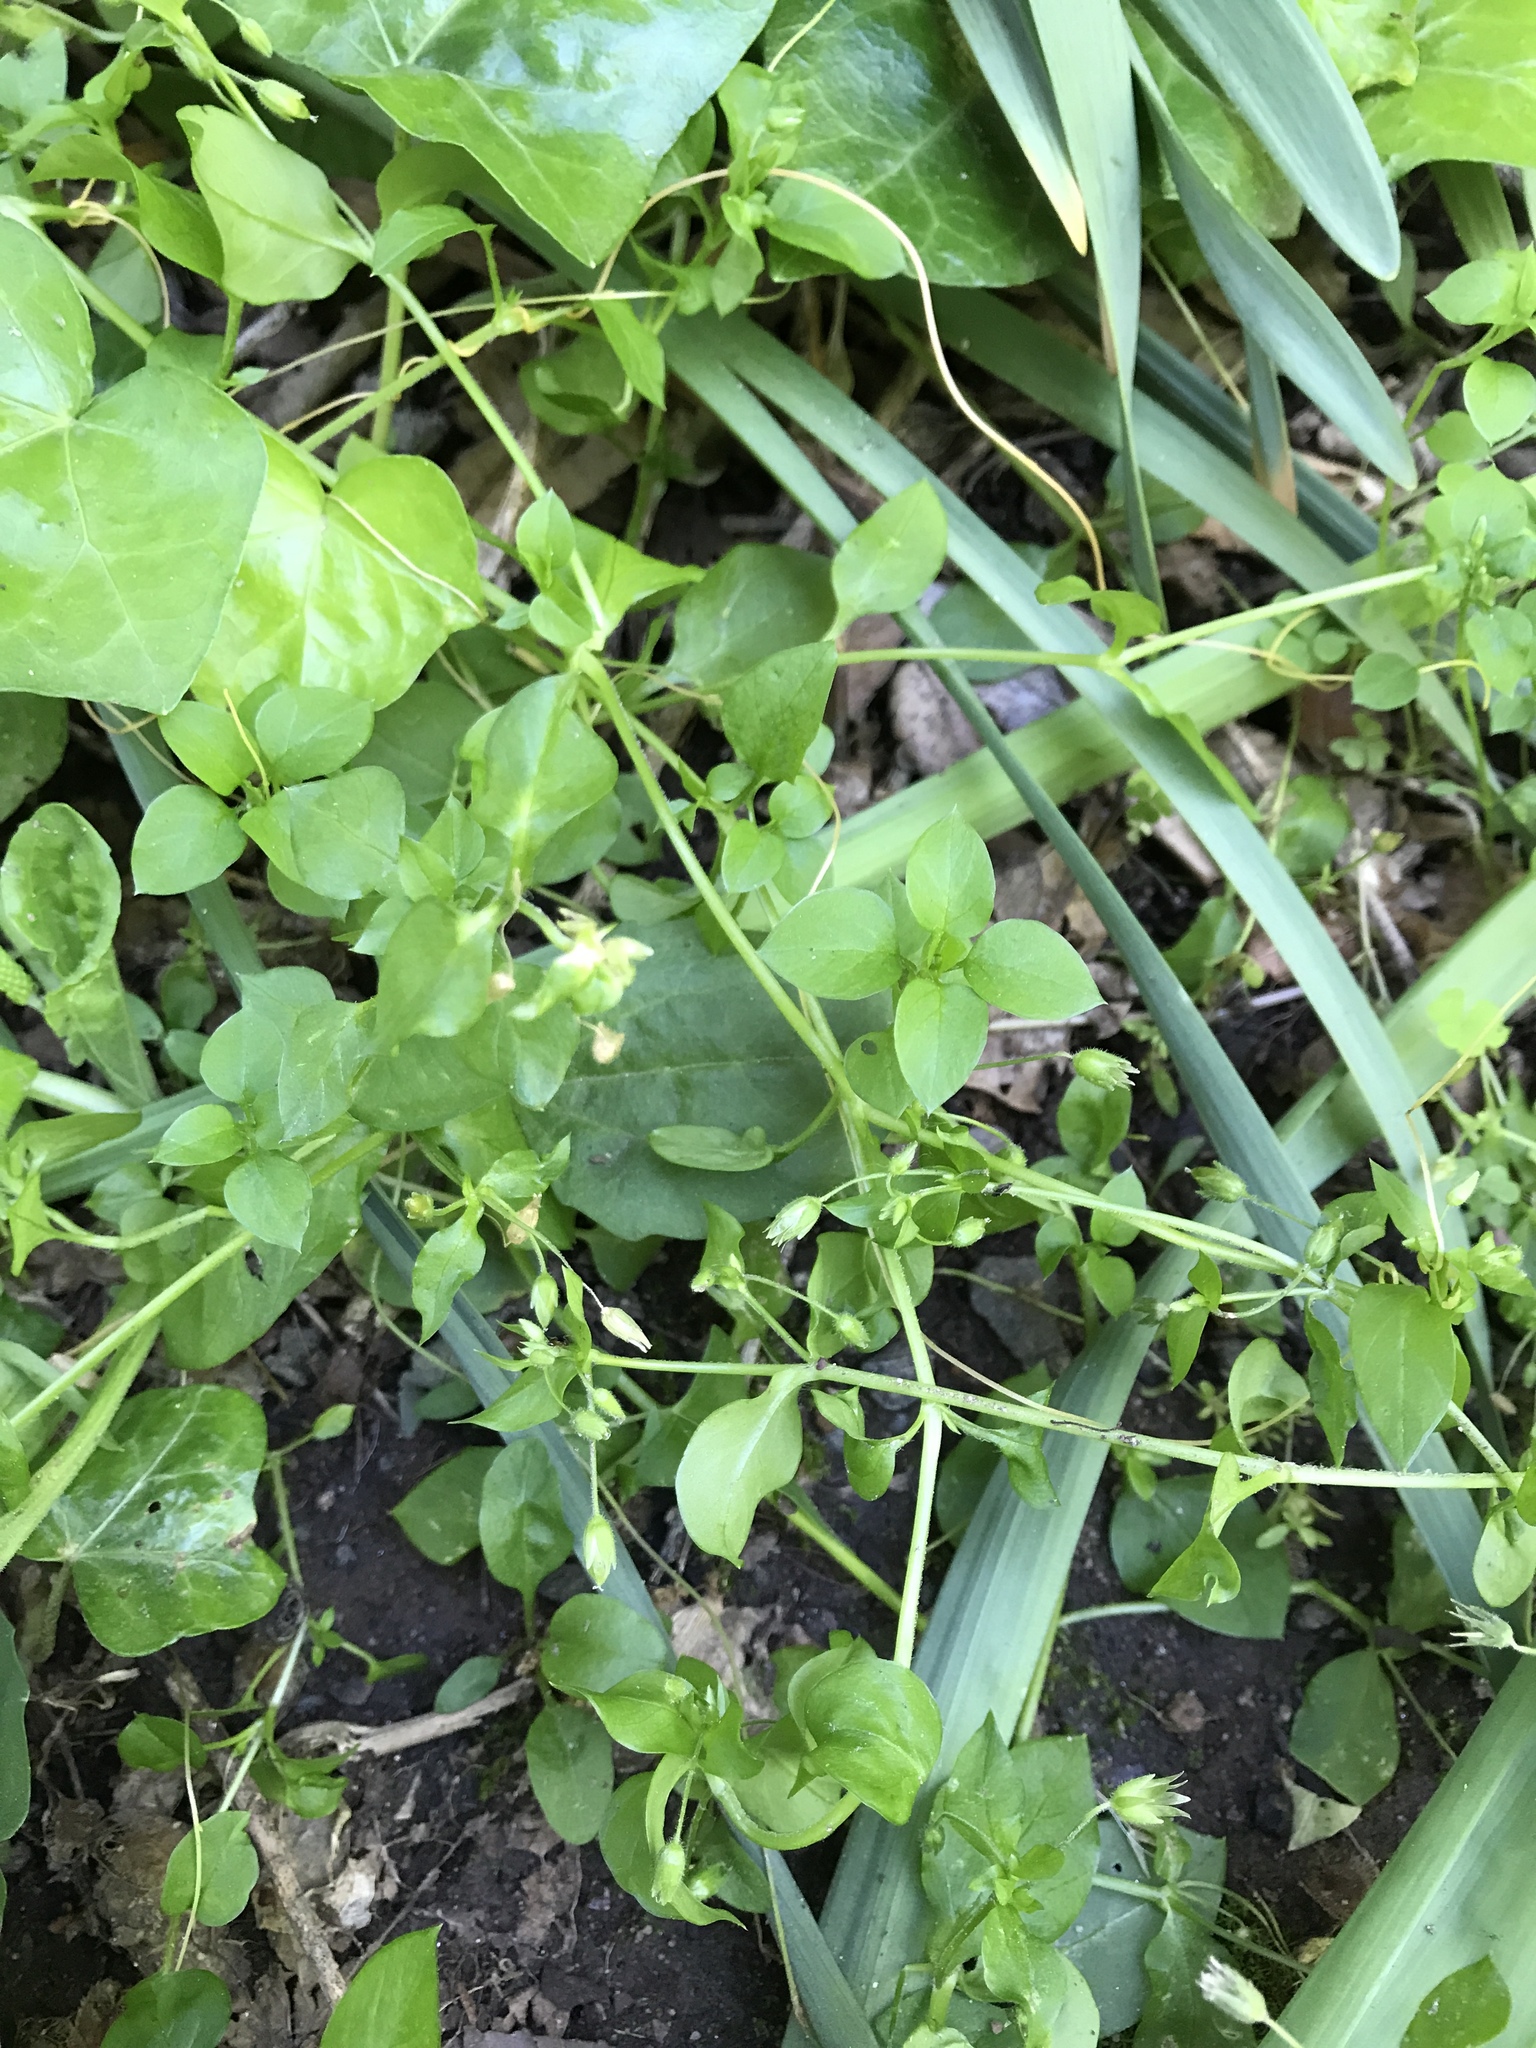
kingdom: Plantae
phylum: Tracheophyta
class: Magnoliopsida
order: Caryophyllales
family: Caryophyllaceae
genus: Stellaria
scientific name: Stellaria media
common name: Common chickweed
